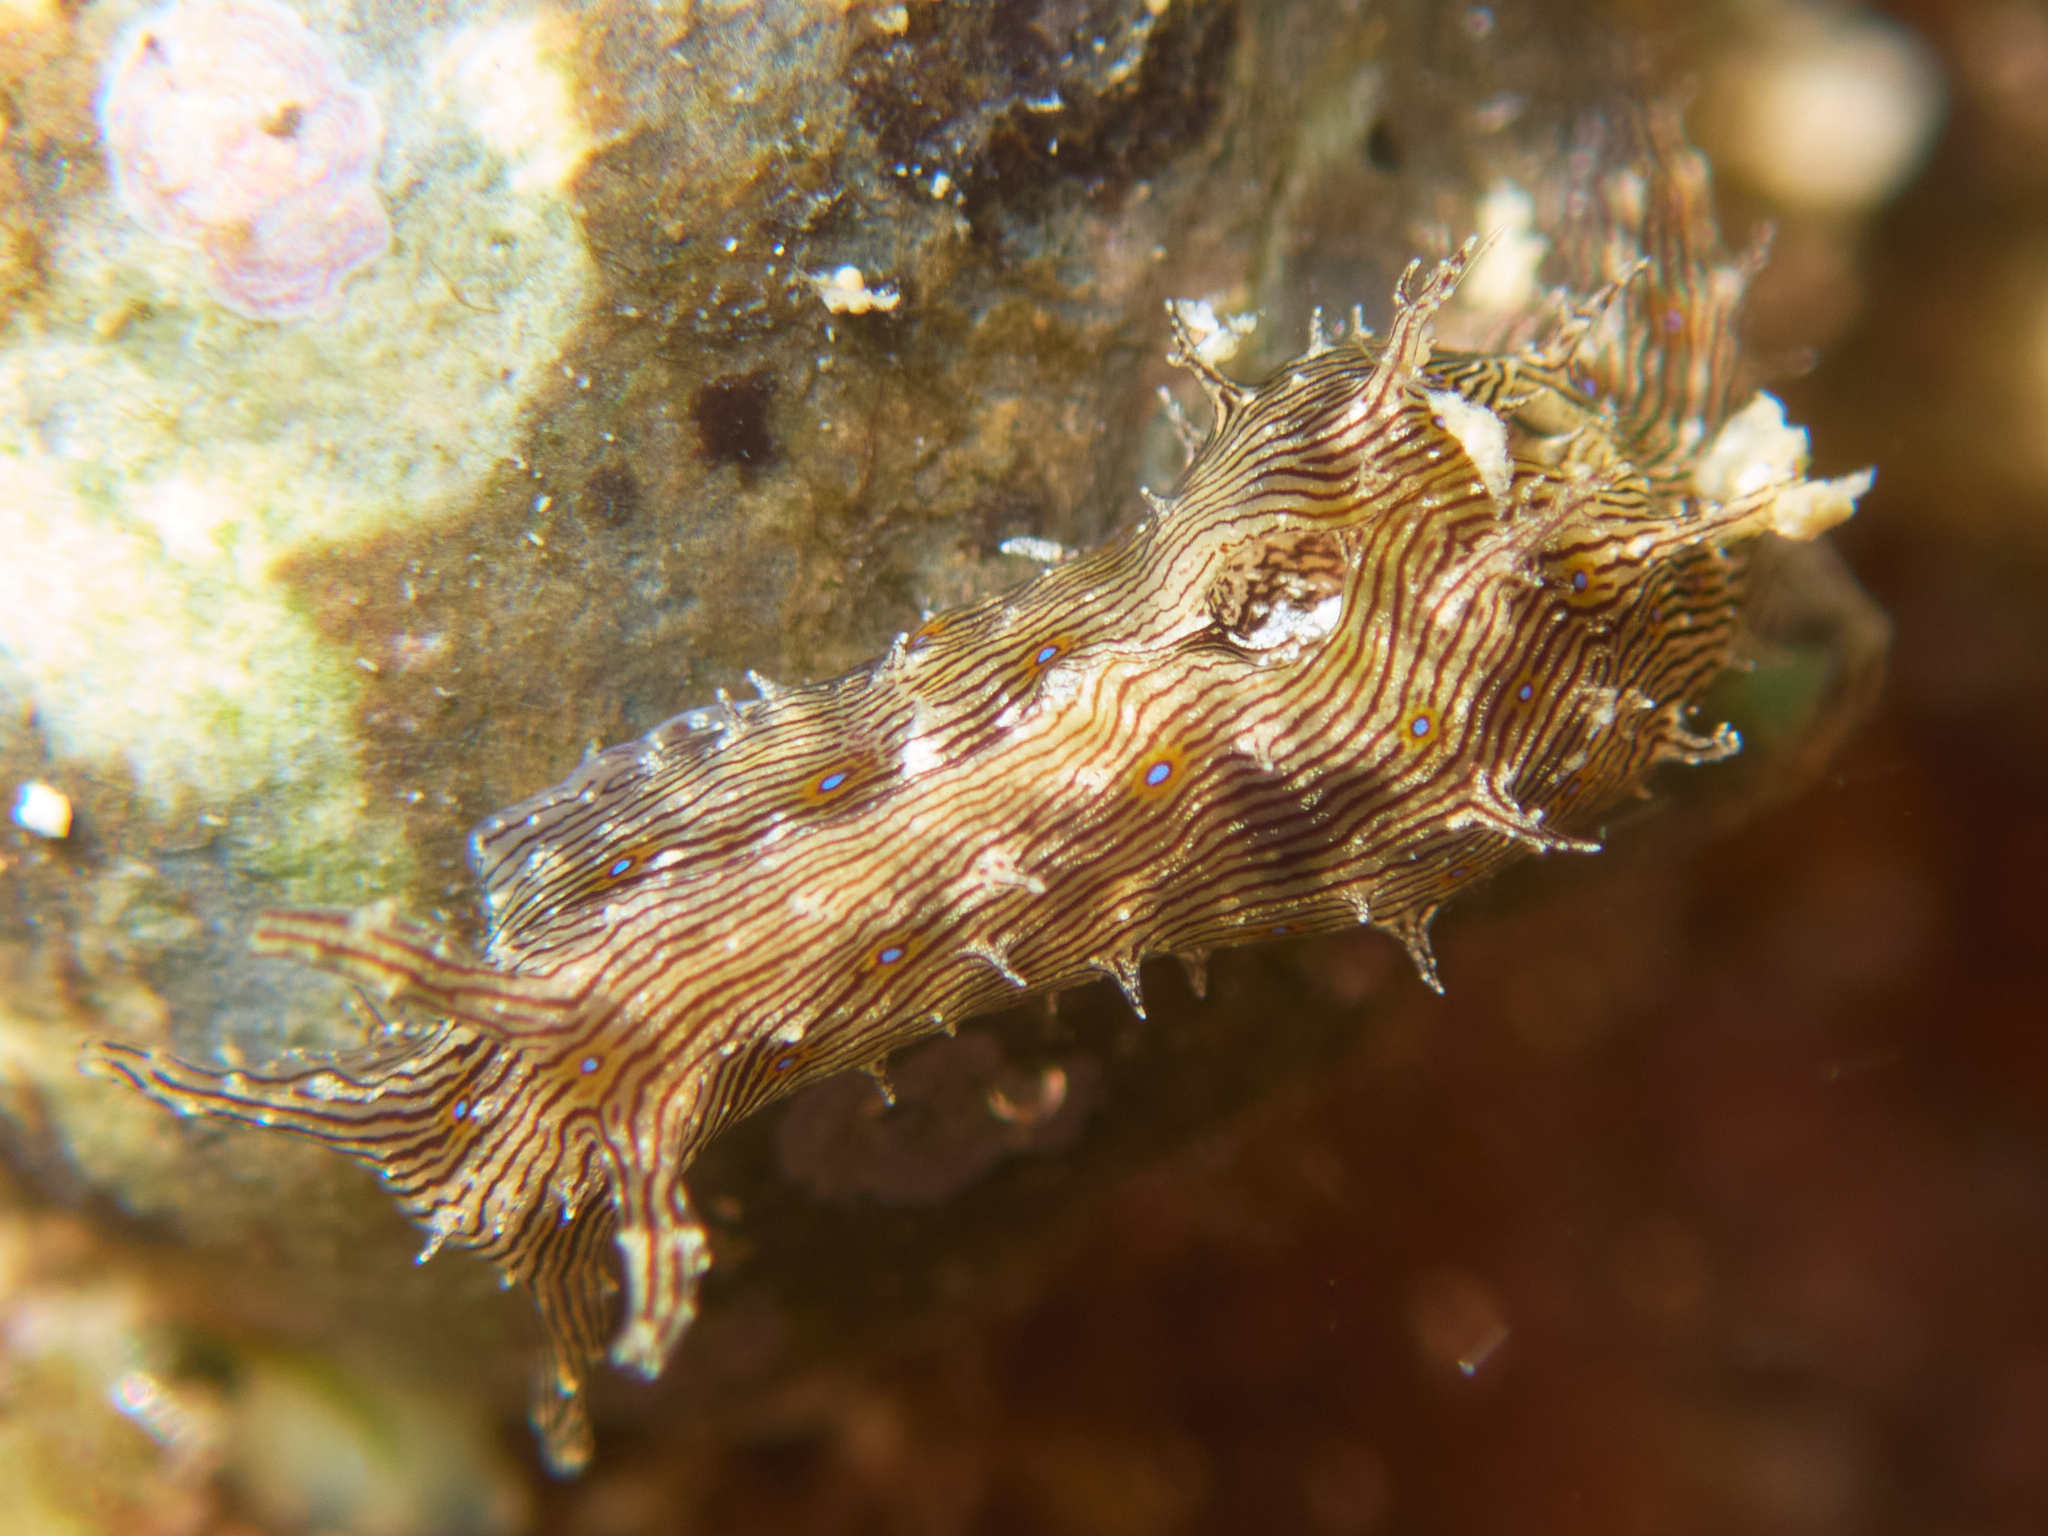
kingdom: Animalia
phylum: Mollusca
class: Gastropoda
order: Aplysiida
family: Aplysiidae
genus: Stylocheilus
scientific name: Stylocheilus rickettsi
